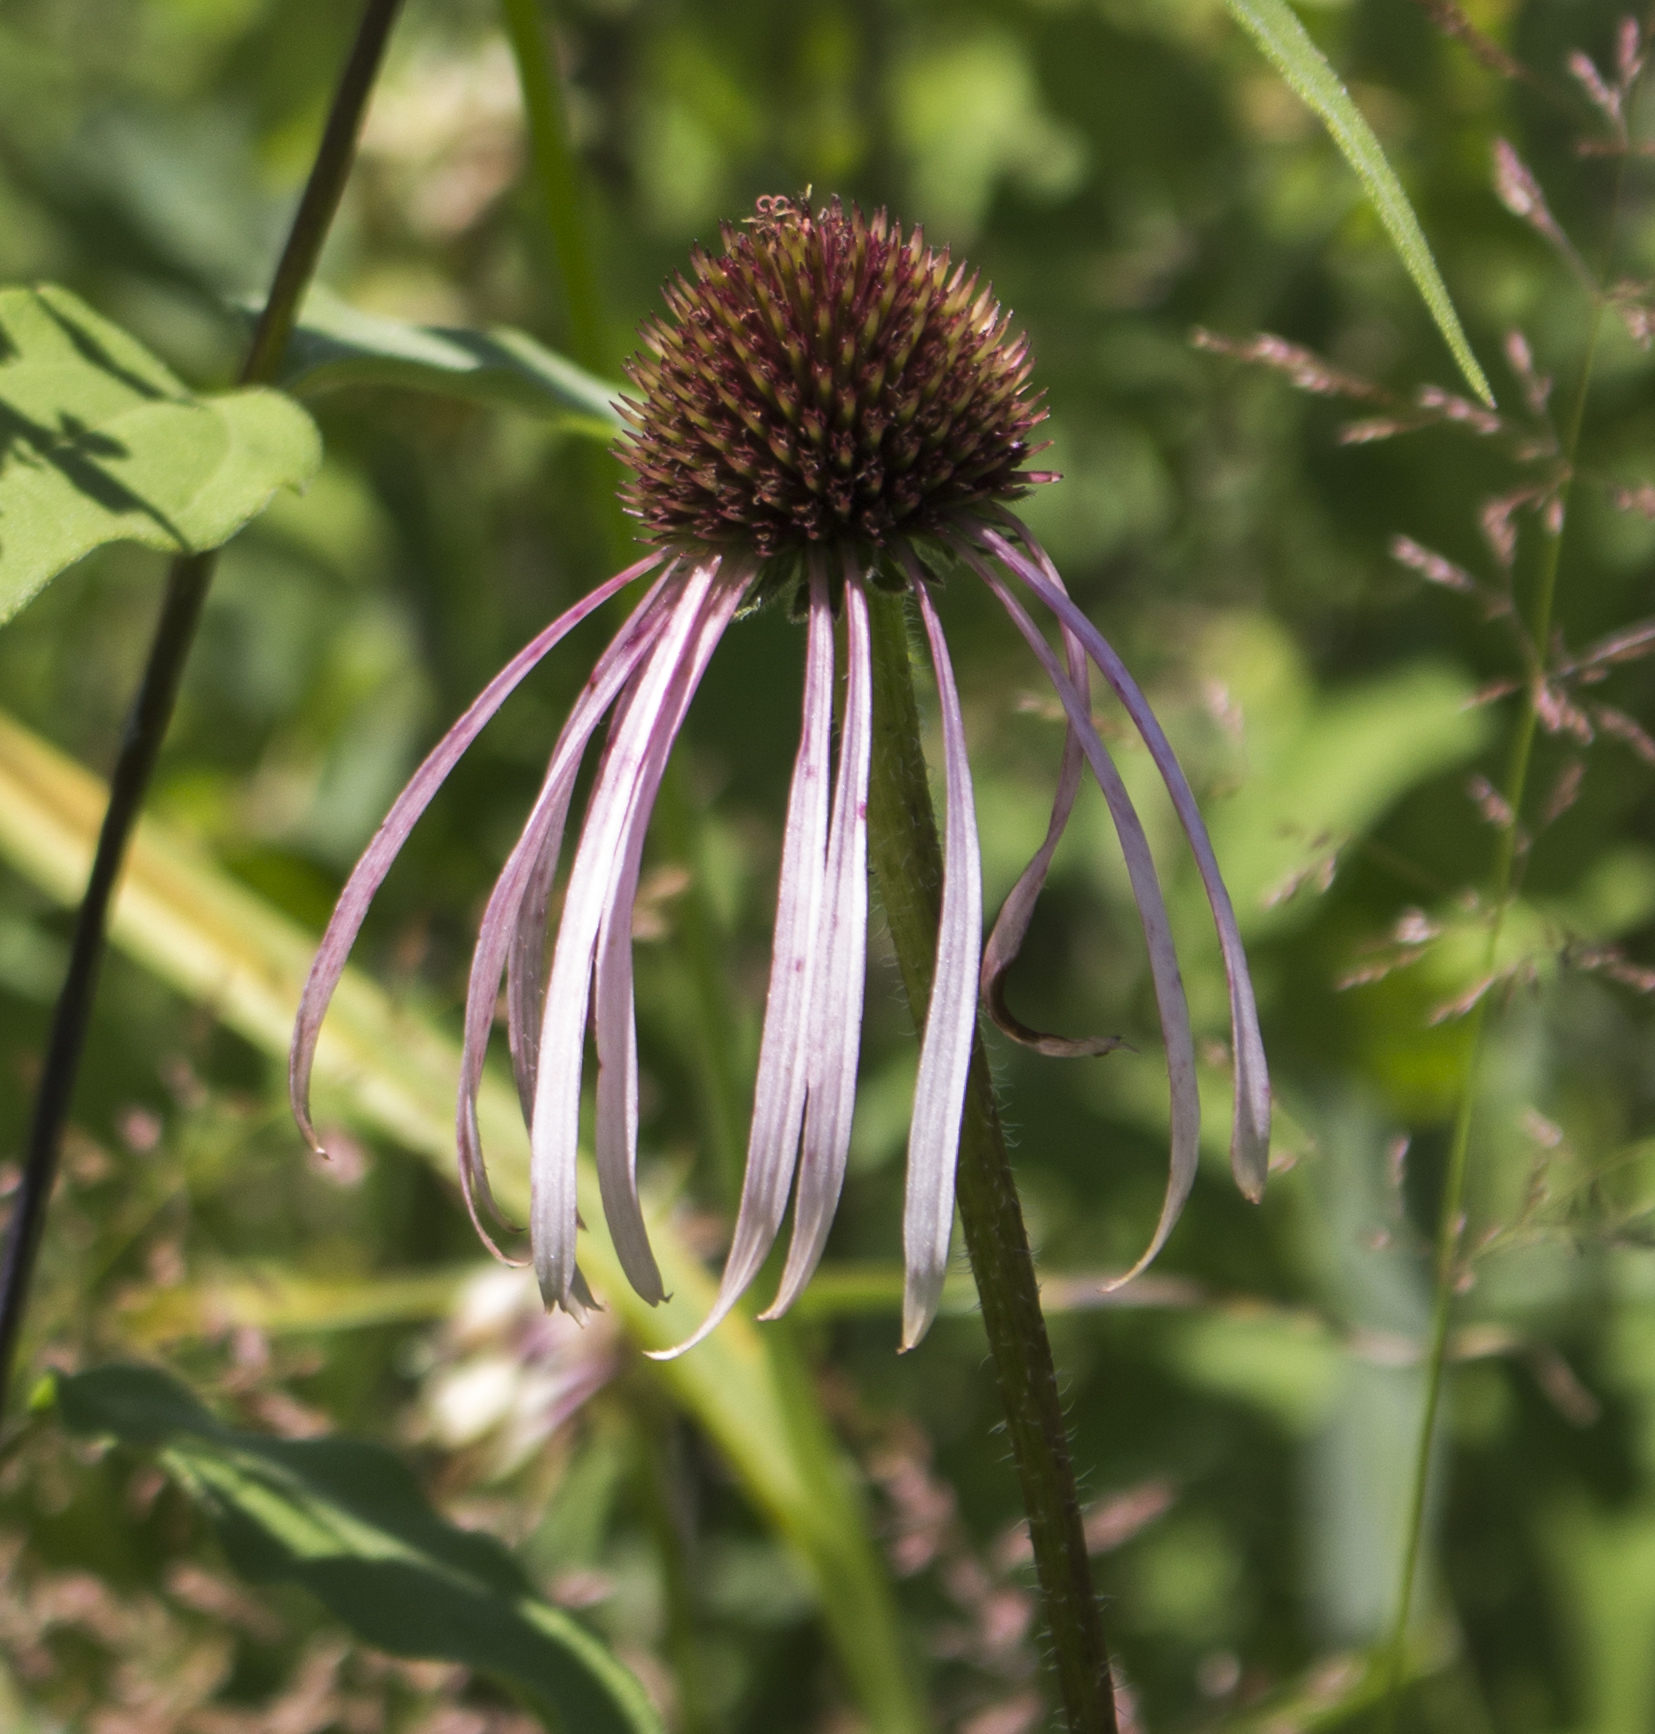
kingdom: Plantae
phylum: Tracheophyta
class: Magnoliopsida
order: Asterales
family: Asteraceae
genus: Echinacea
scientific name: Echinacea pallida
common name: Pale echinacea
